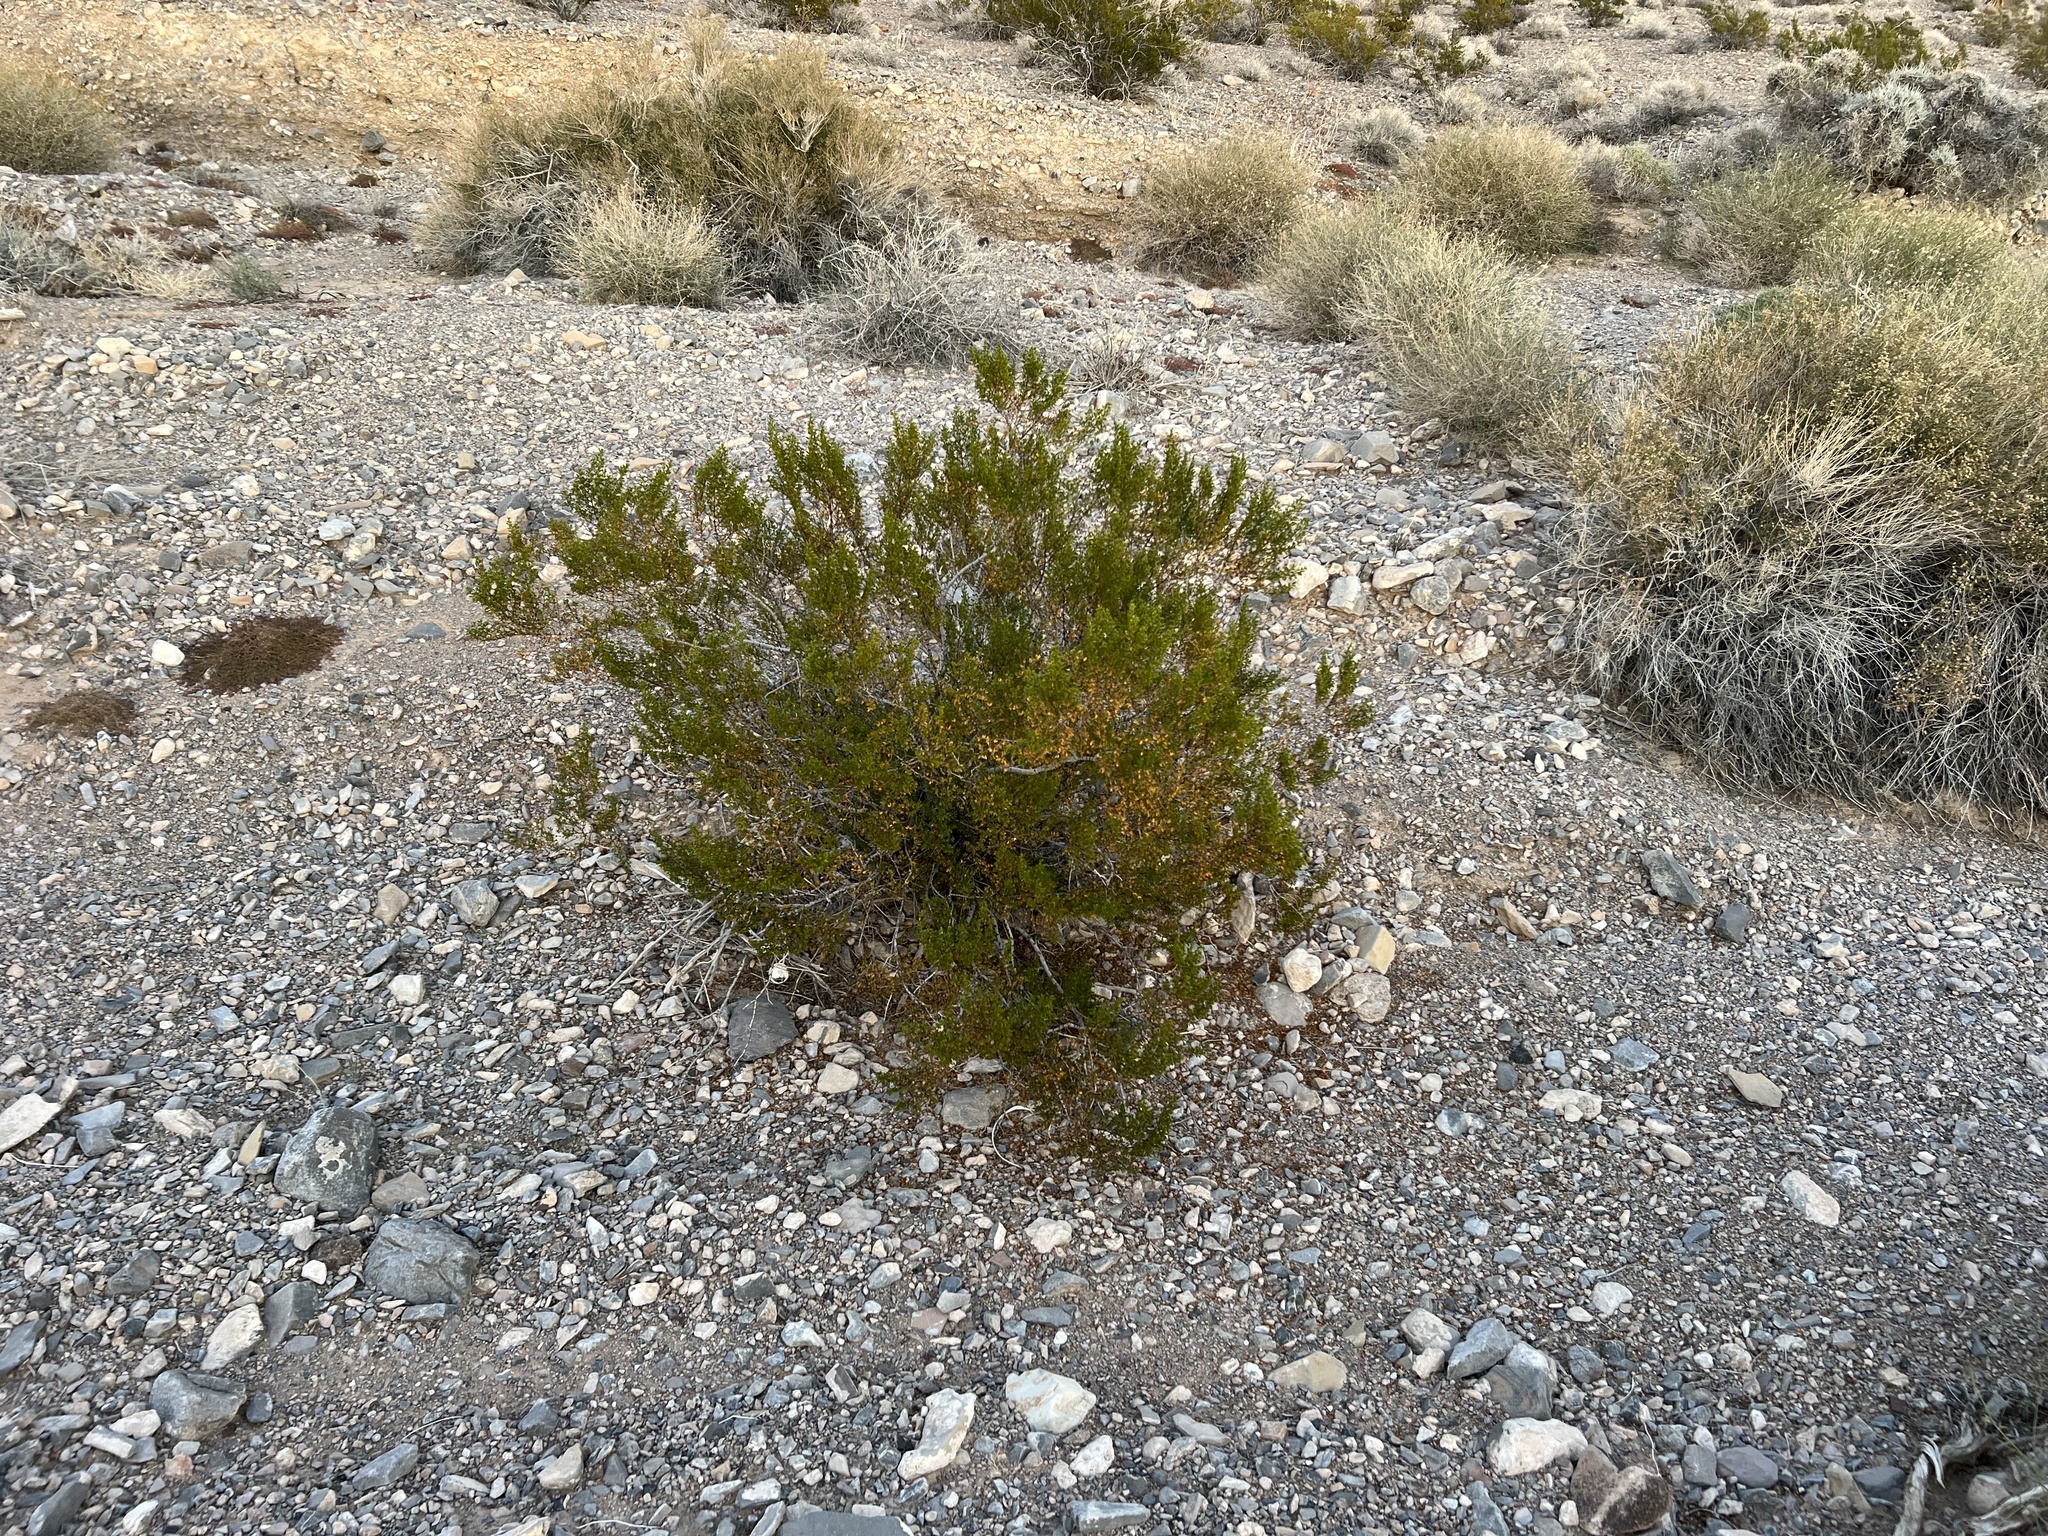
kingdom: Plantae
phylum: Tracheophyta
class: Magnoliopsida
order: Zygophyllales
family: Zygophyllaceae
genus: Larrea
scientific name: Larrea tridentata
